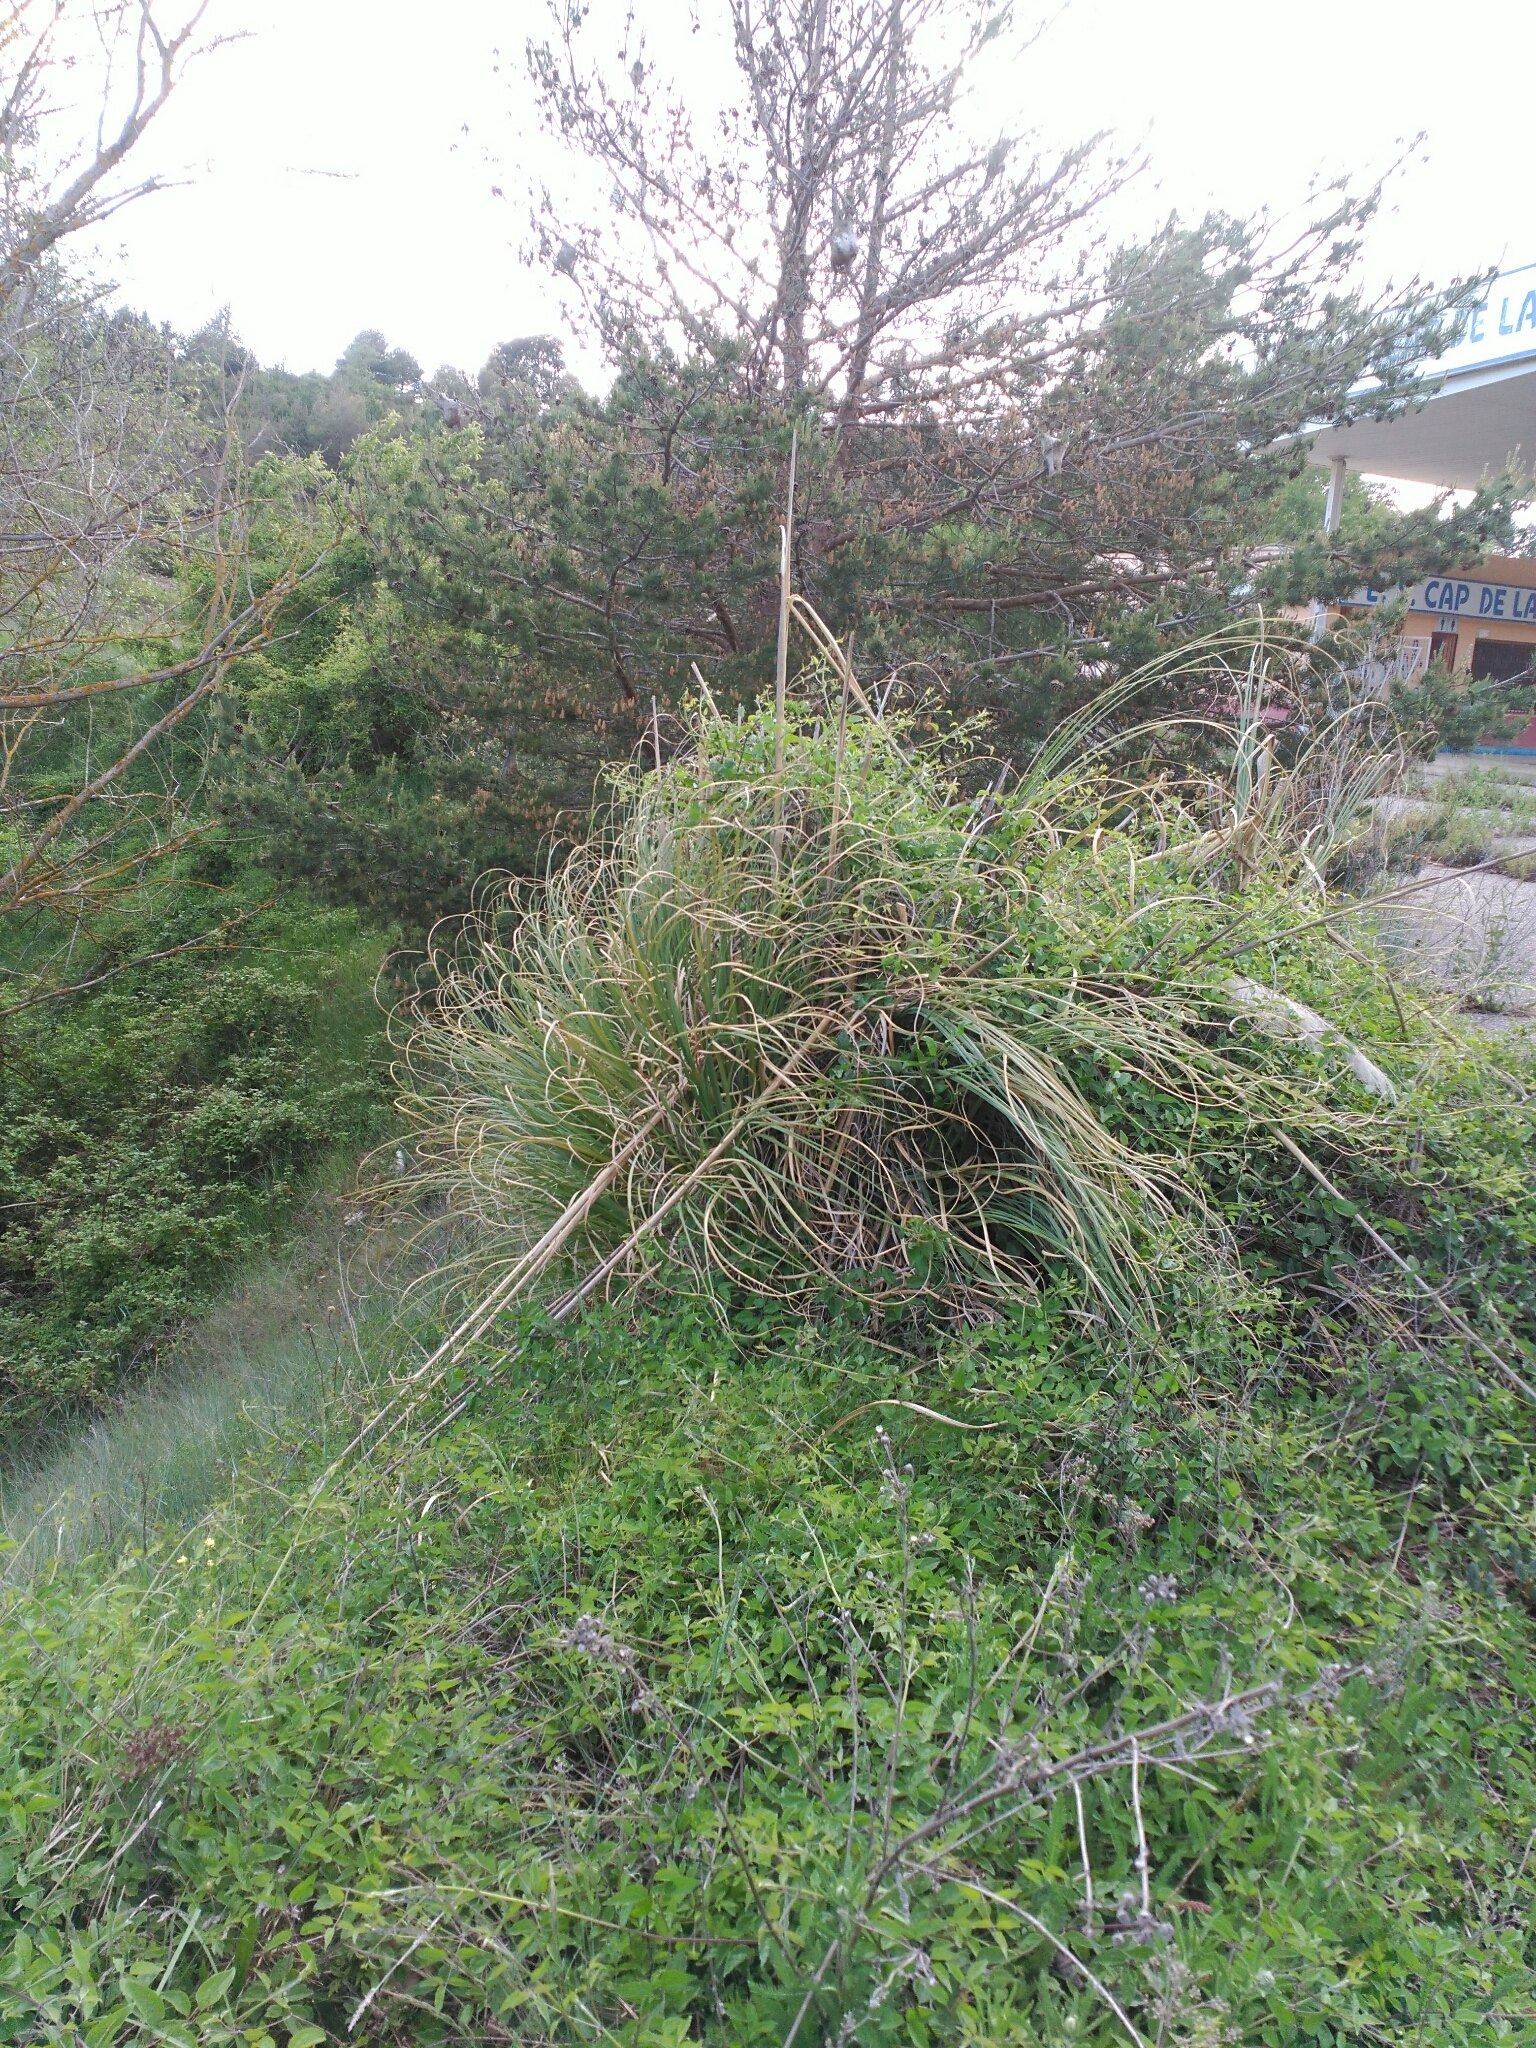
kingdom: Plantae
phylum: Tracheophyta
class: Liliopsida
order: Poales
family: Poaceae
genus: Cortaderia
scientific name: Cortaderia selloana
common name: Uruguayan pampas grass
